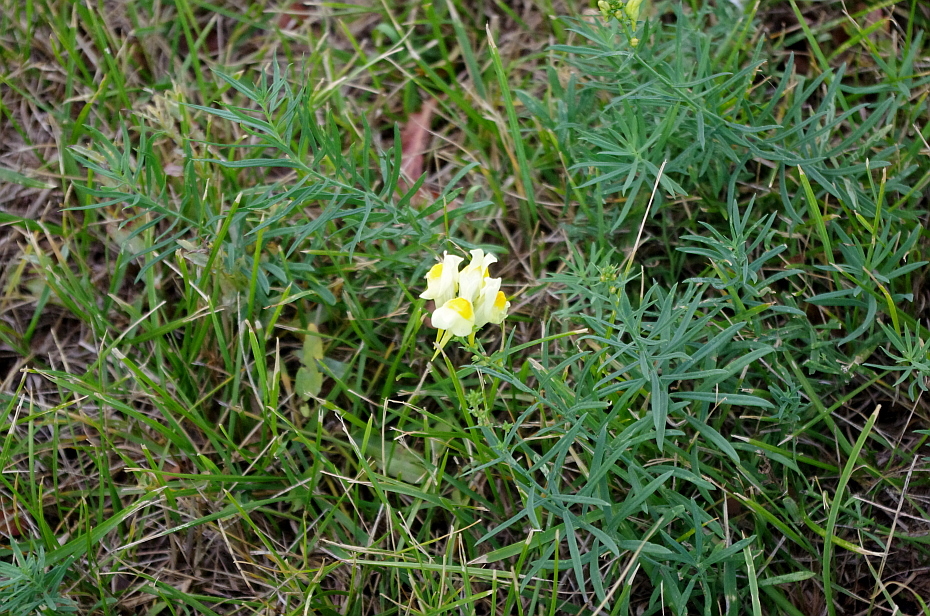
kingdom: Plantae
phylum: Tracheophyta
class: Magnoliopsida
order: Lamiales
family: Plantaginaceae
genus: Linaria
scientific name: Linaria vulgaris
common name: Butter and eggs
